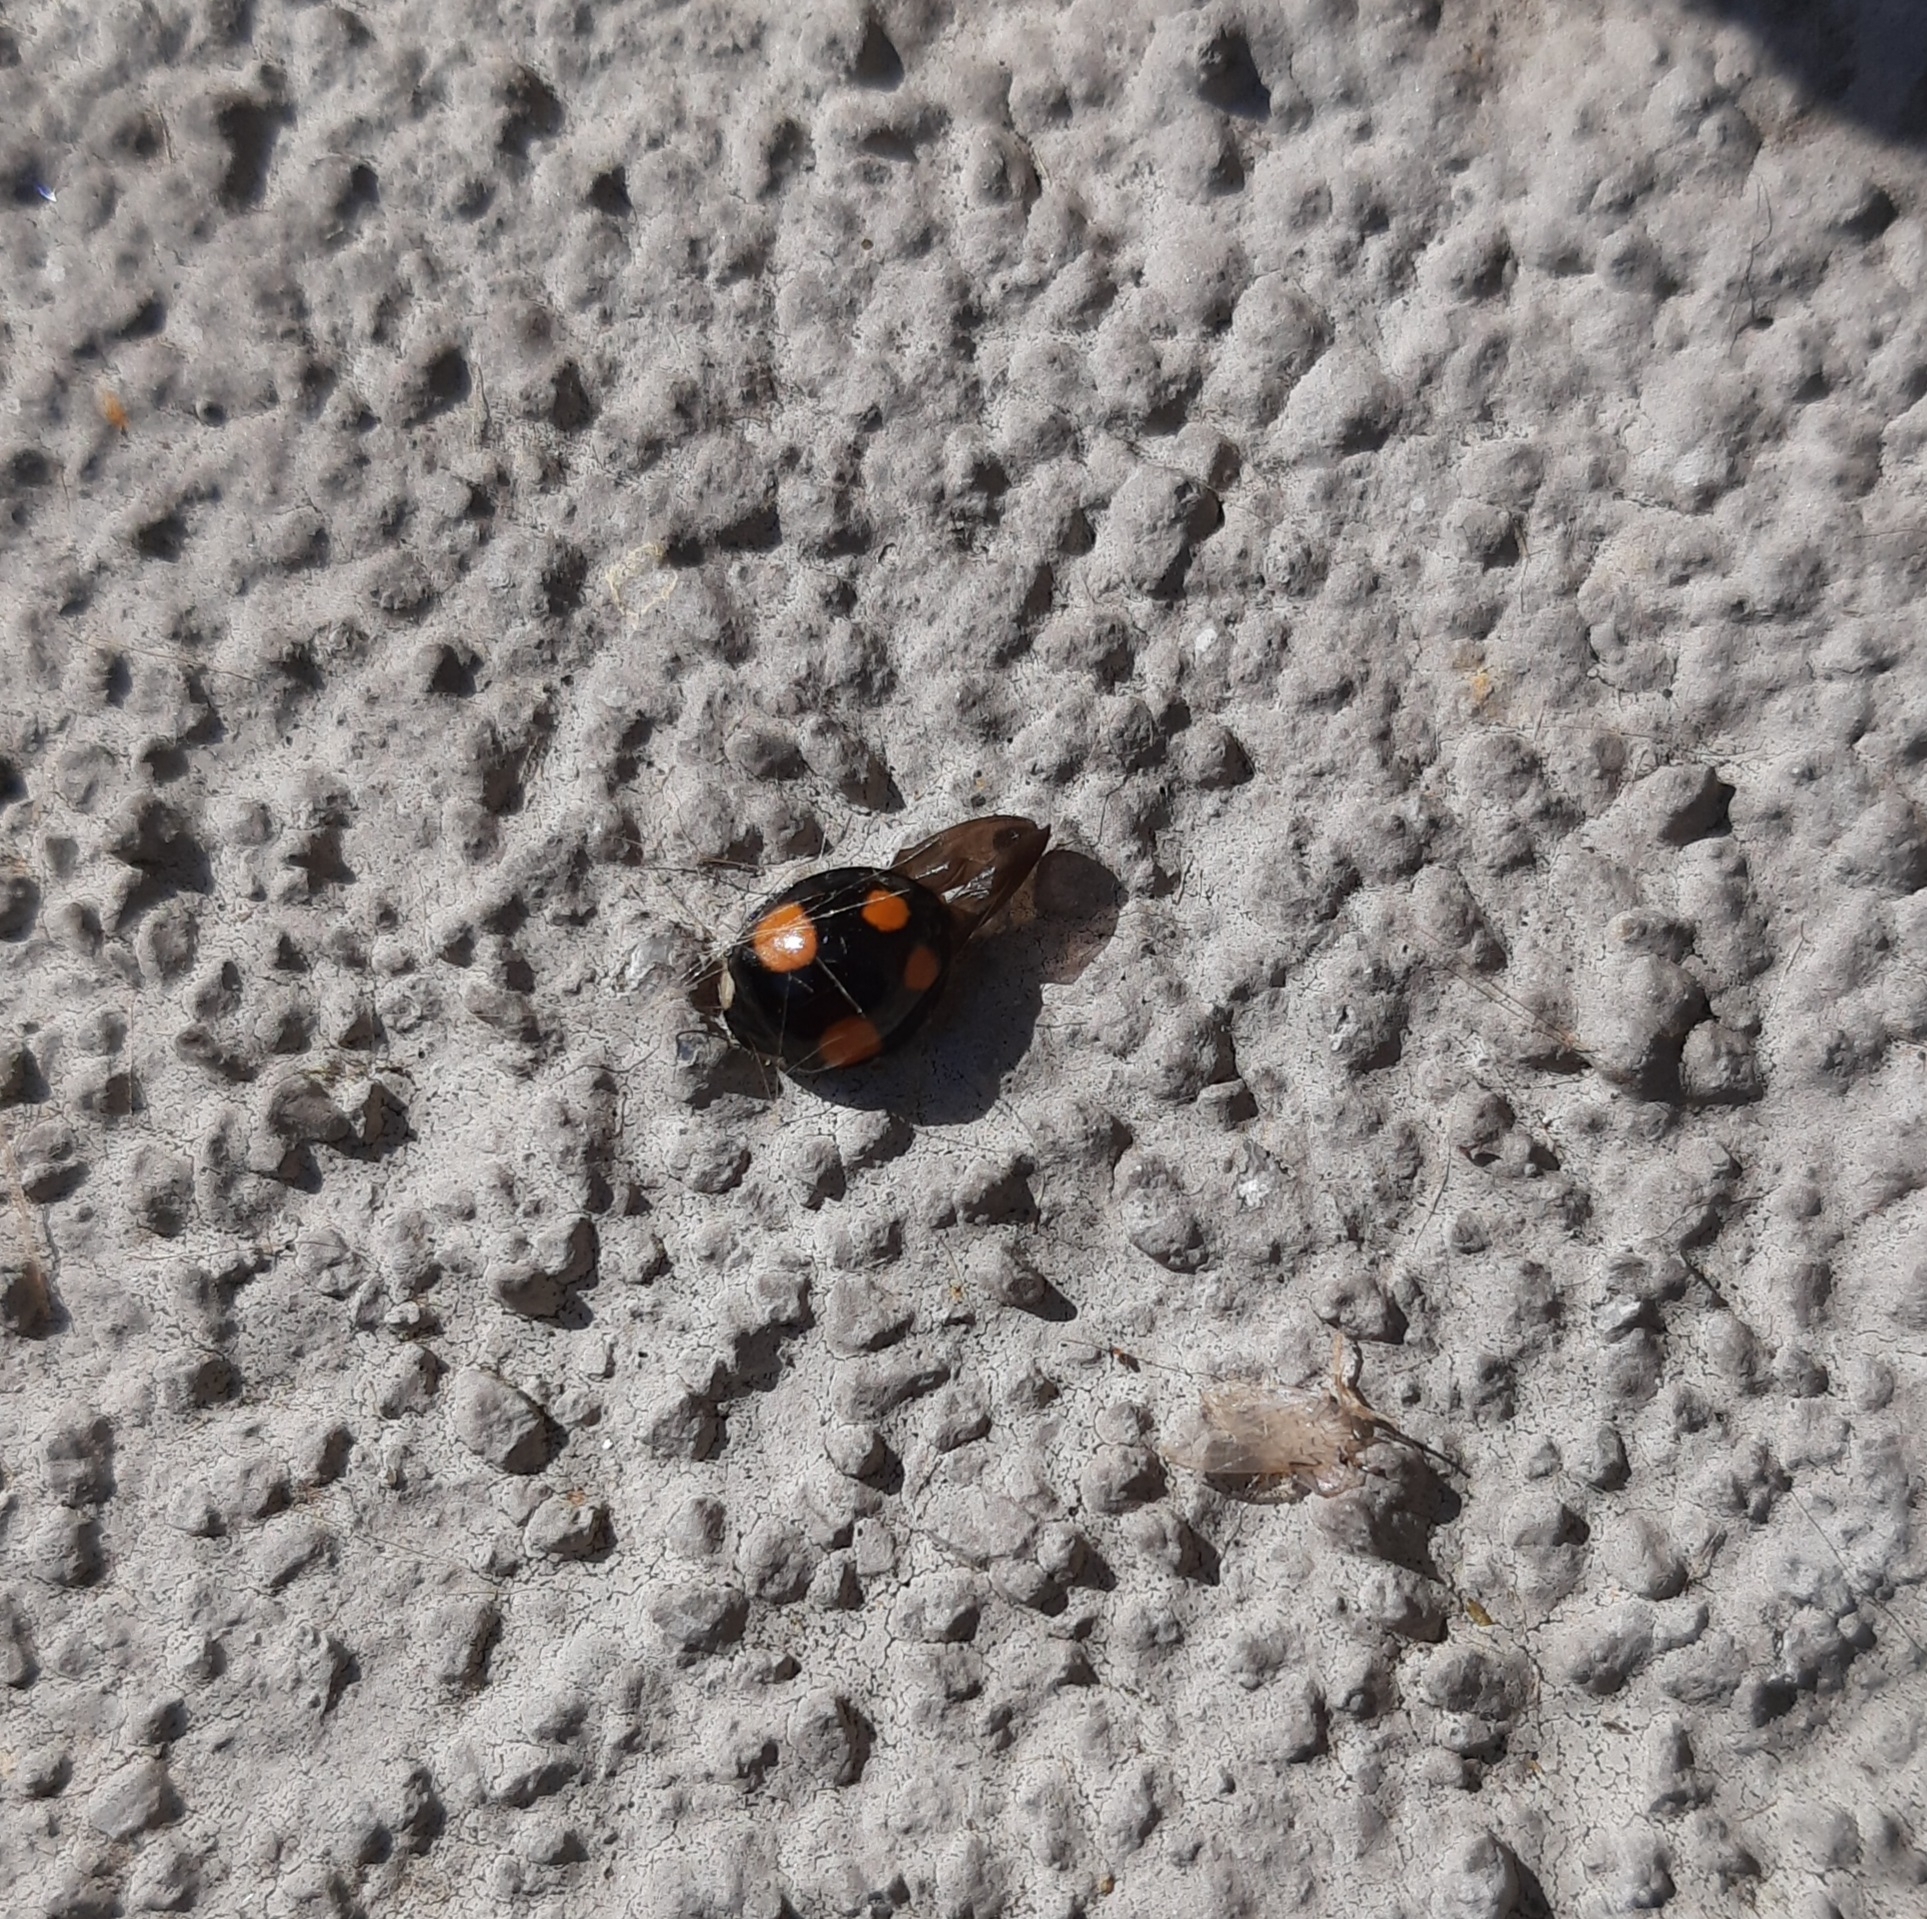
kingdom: Animalia
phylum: Arthropoda
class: Insecta
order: Coleoptera
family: Coccinellidae
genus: Harmonia
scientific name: Harmonia axyridis
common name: Harlequin ladybird
